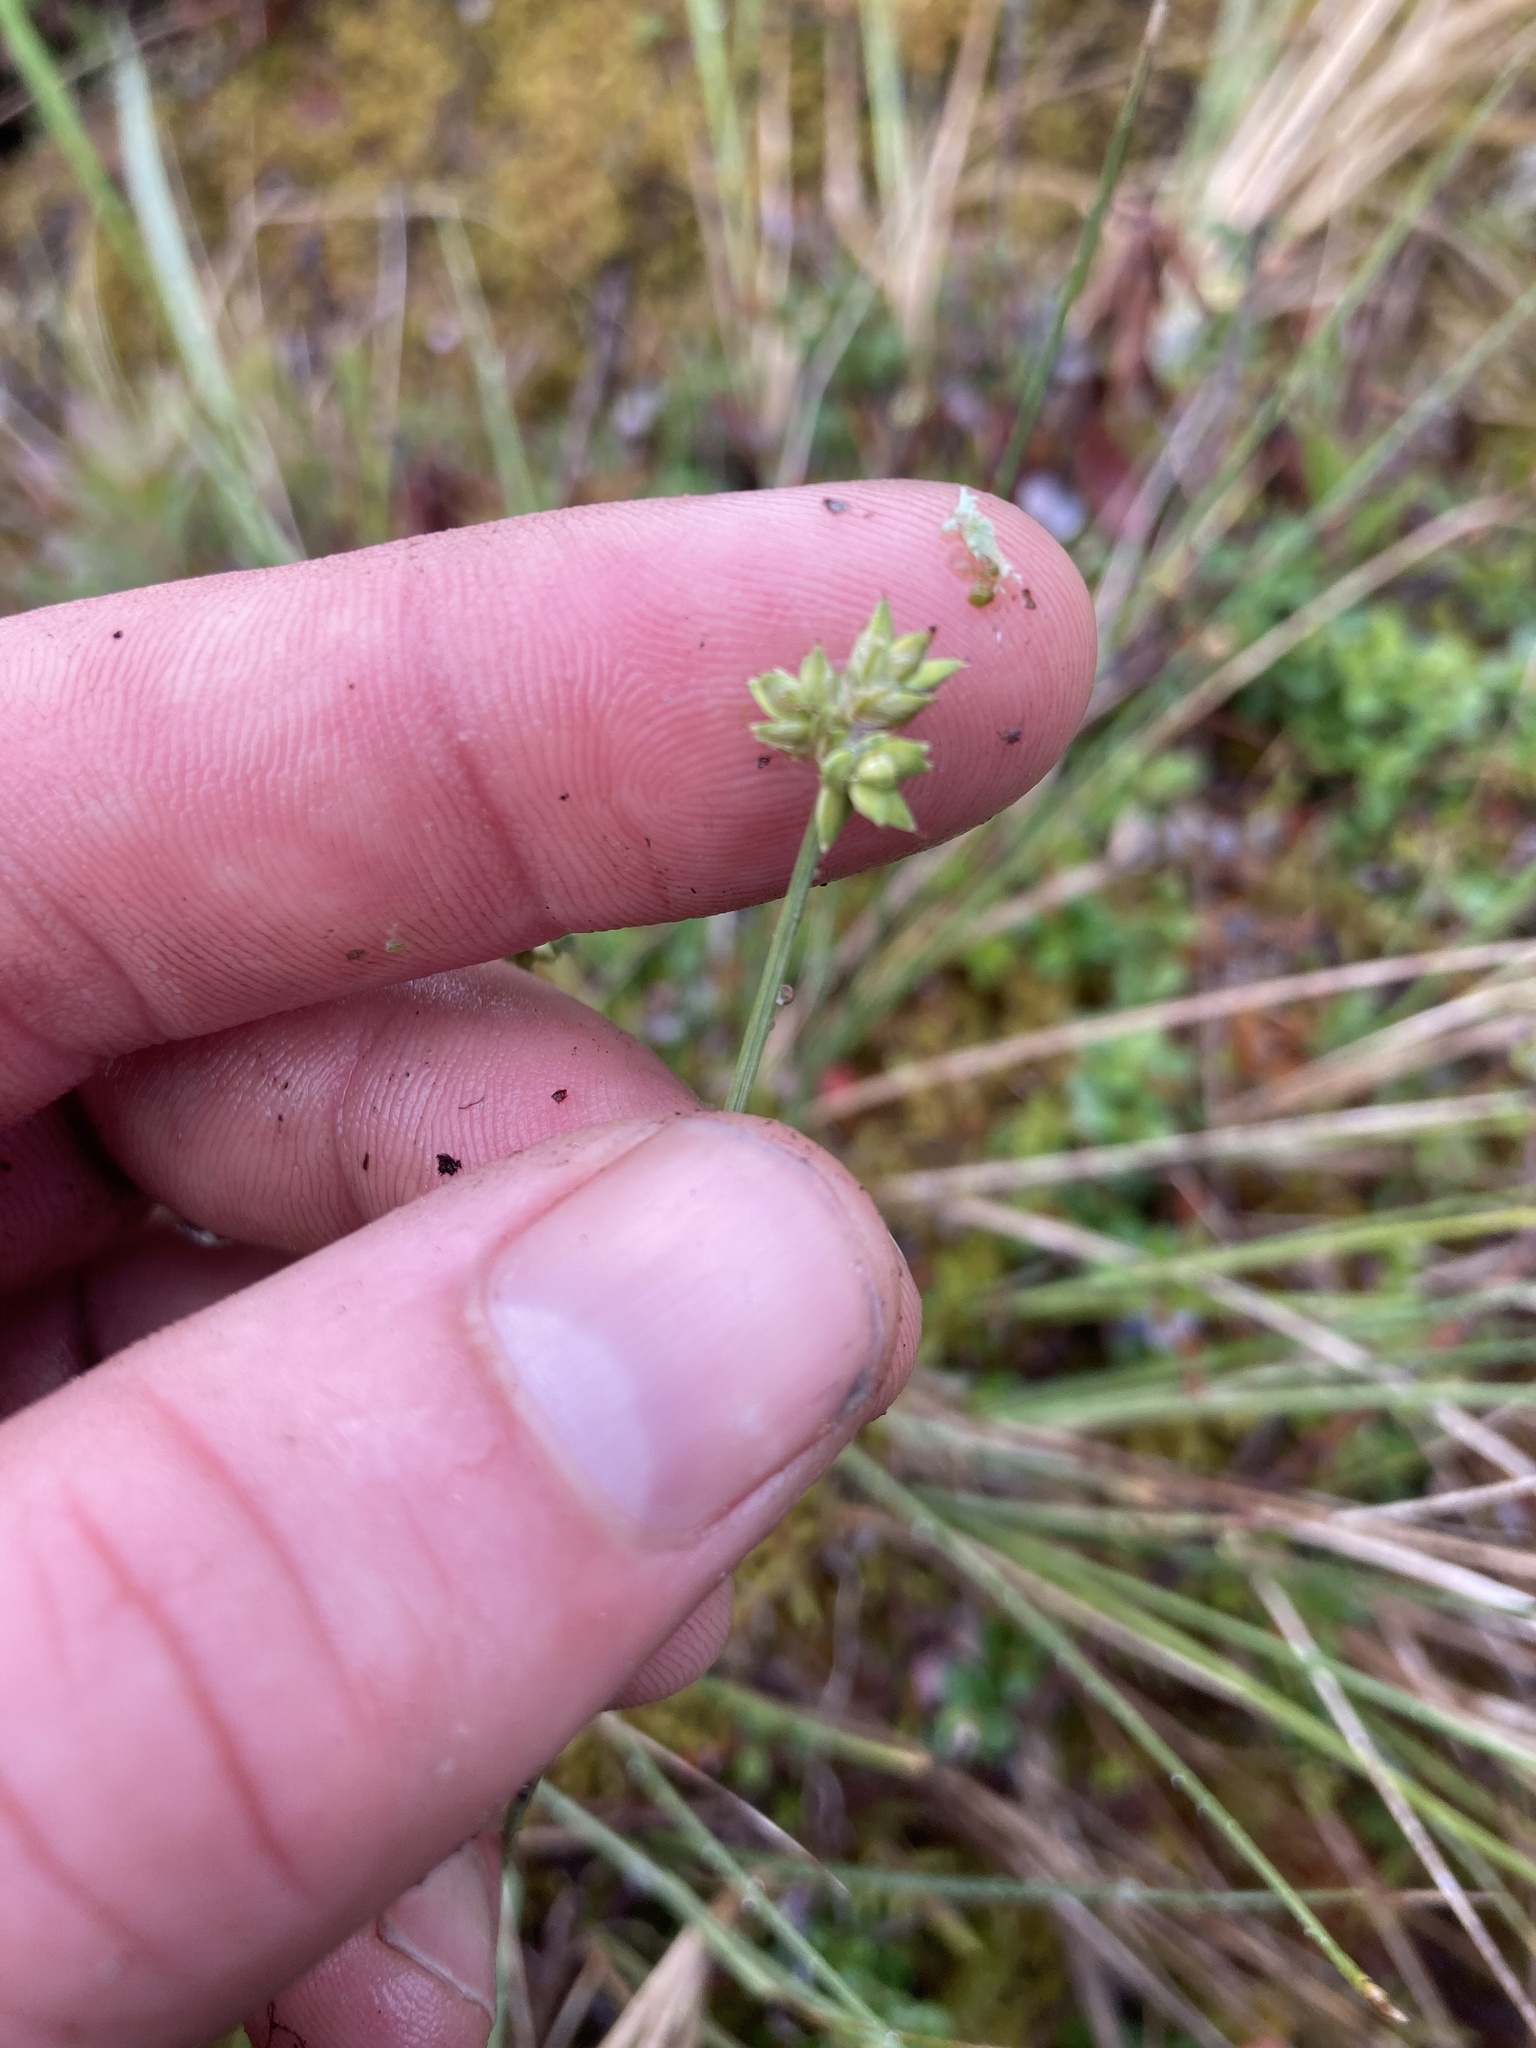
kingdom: Plantae
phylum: Tracheophyta
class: Liliopsida
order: Poales
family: Cyperaceae
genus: Carex
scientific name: Carex tenuiflora
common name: Sparse-flowered sedge
